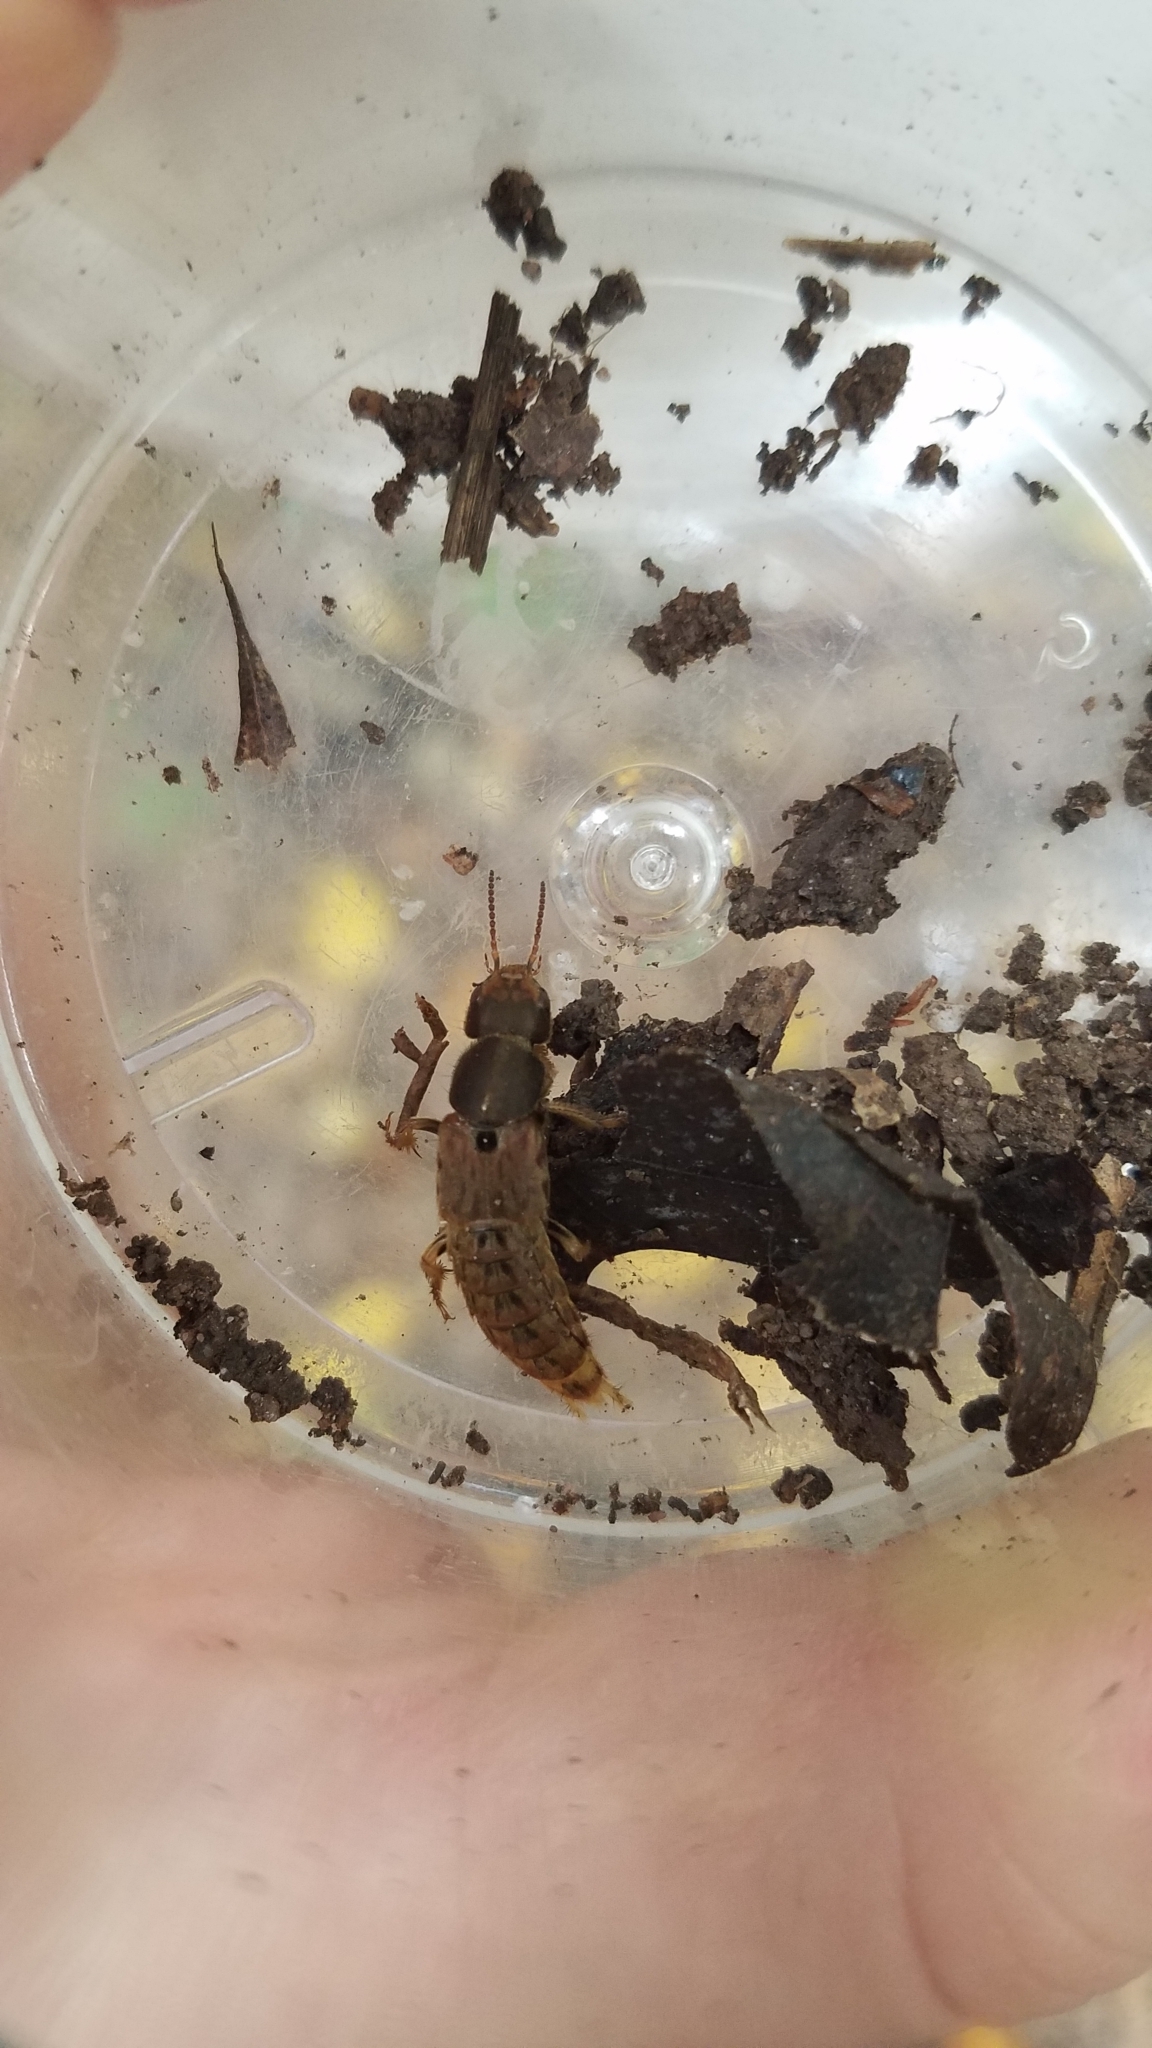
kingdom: Animalia
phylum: Arthropoda
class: Insecta
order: Coleoptera
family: Staphylinidae
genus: Platydracus
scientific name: Platydracus maculosus
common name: Brown rove beetle
